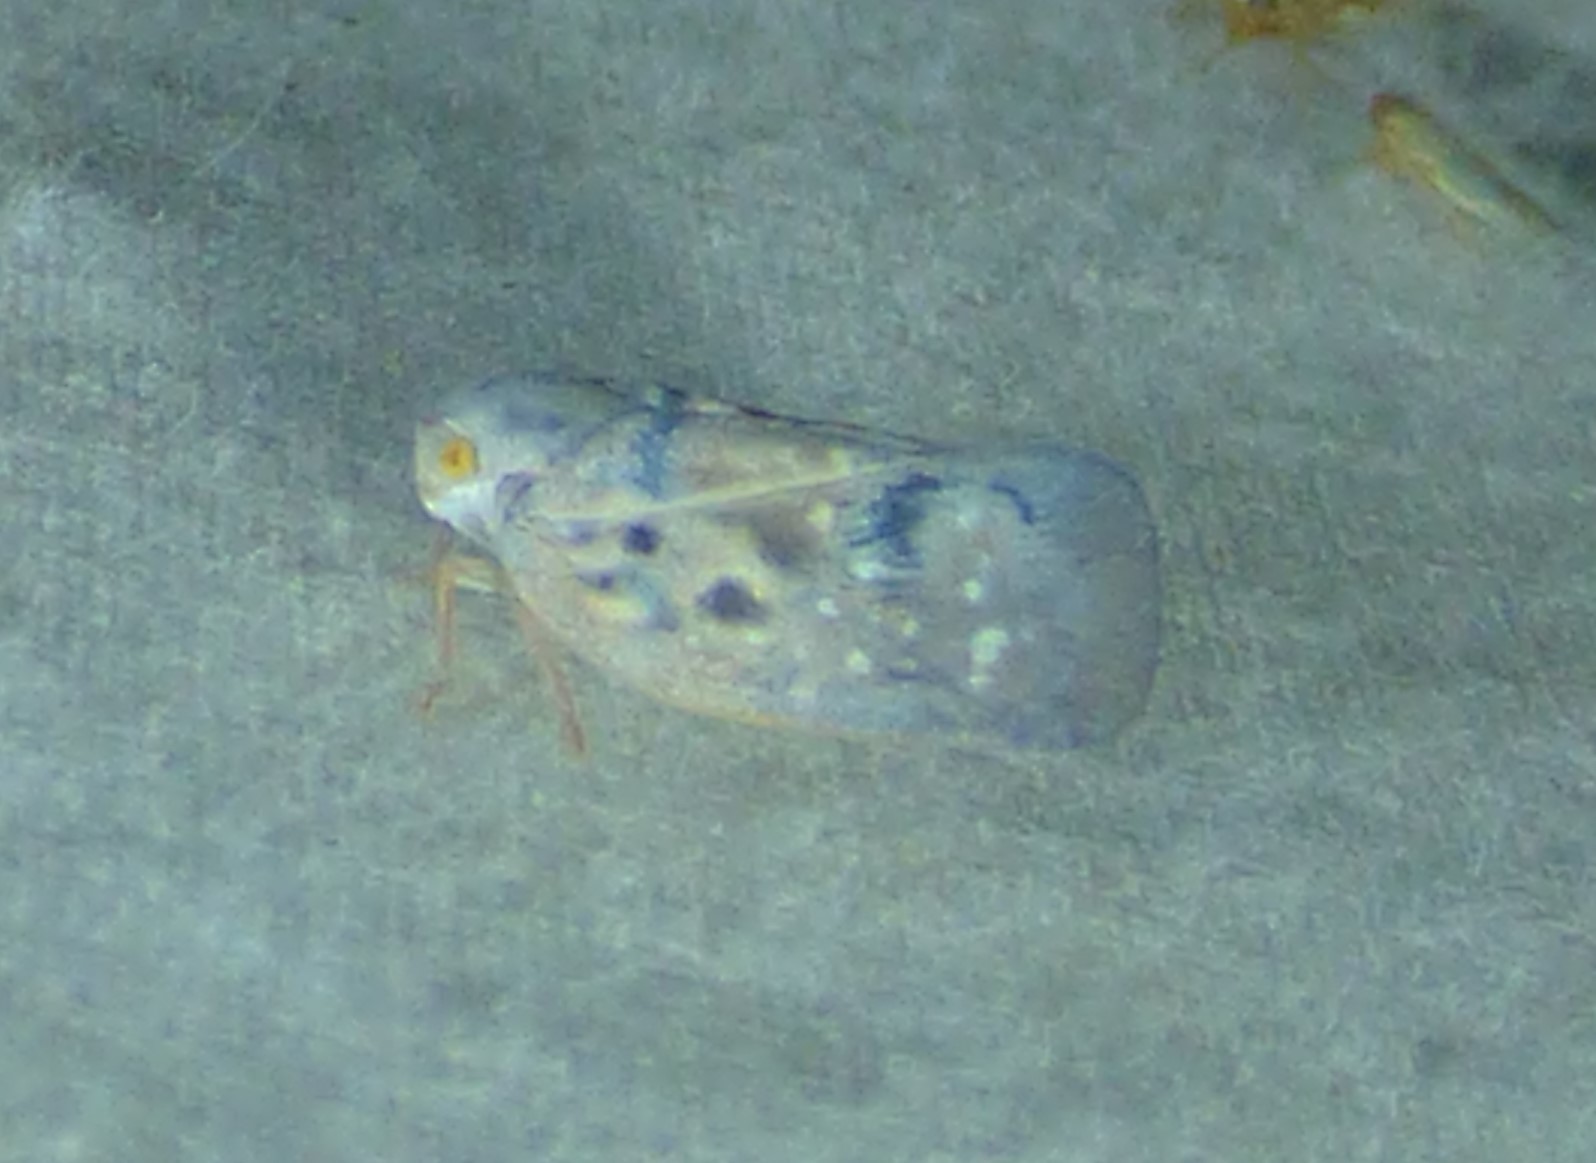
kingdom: Animalia
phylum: Arthropoda
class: Insecta
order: Hemiptera
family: Flatidae
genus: Metcalfa
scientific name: Metcalfa pruinosa
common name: Citrus flatid planthopper
